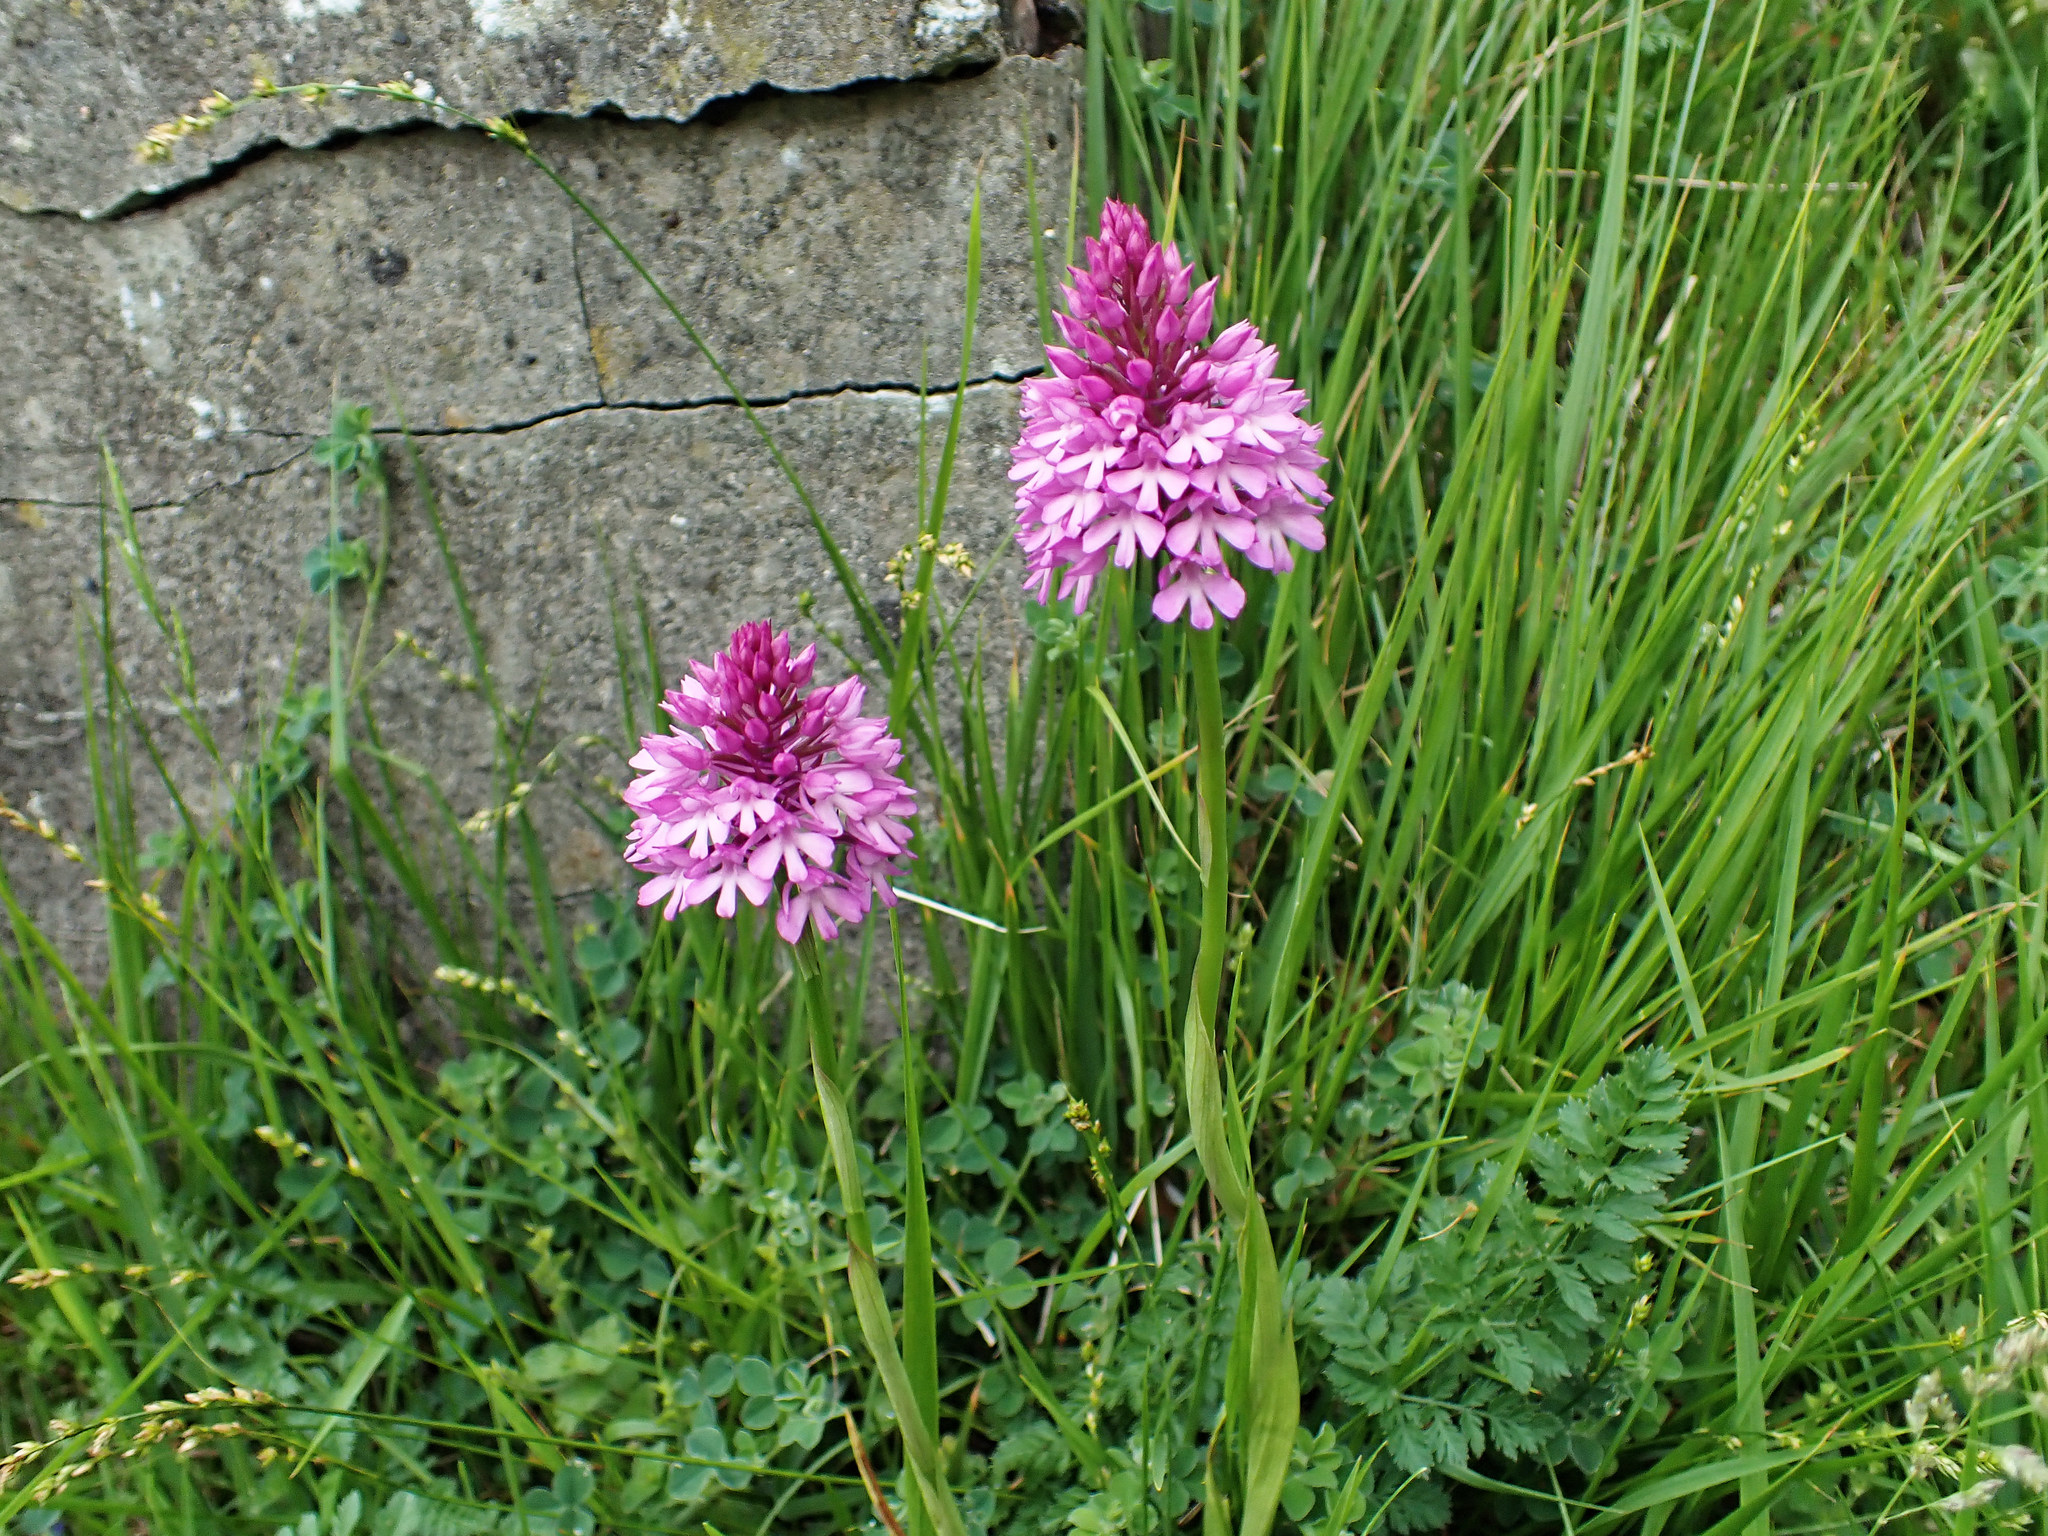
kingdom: Plantae
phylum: Tracheophyta
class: Liliopsida
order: Asparagales
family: Orchidaceae
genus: Anacamptis
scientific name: Anacamptis pyramidalis
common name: Pyramidal orchid
